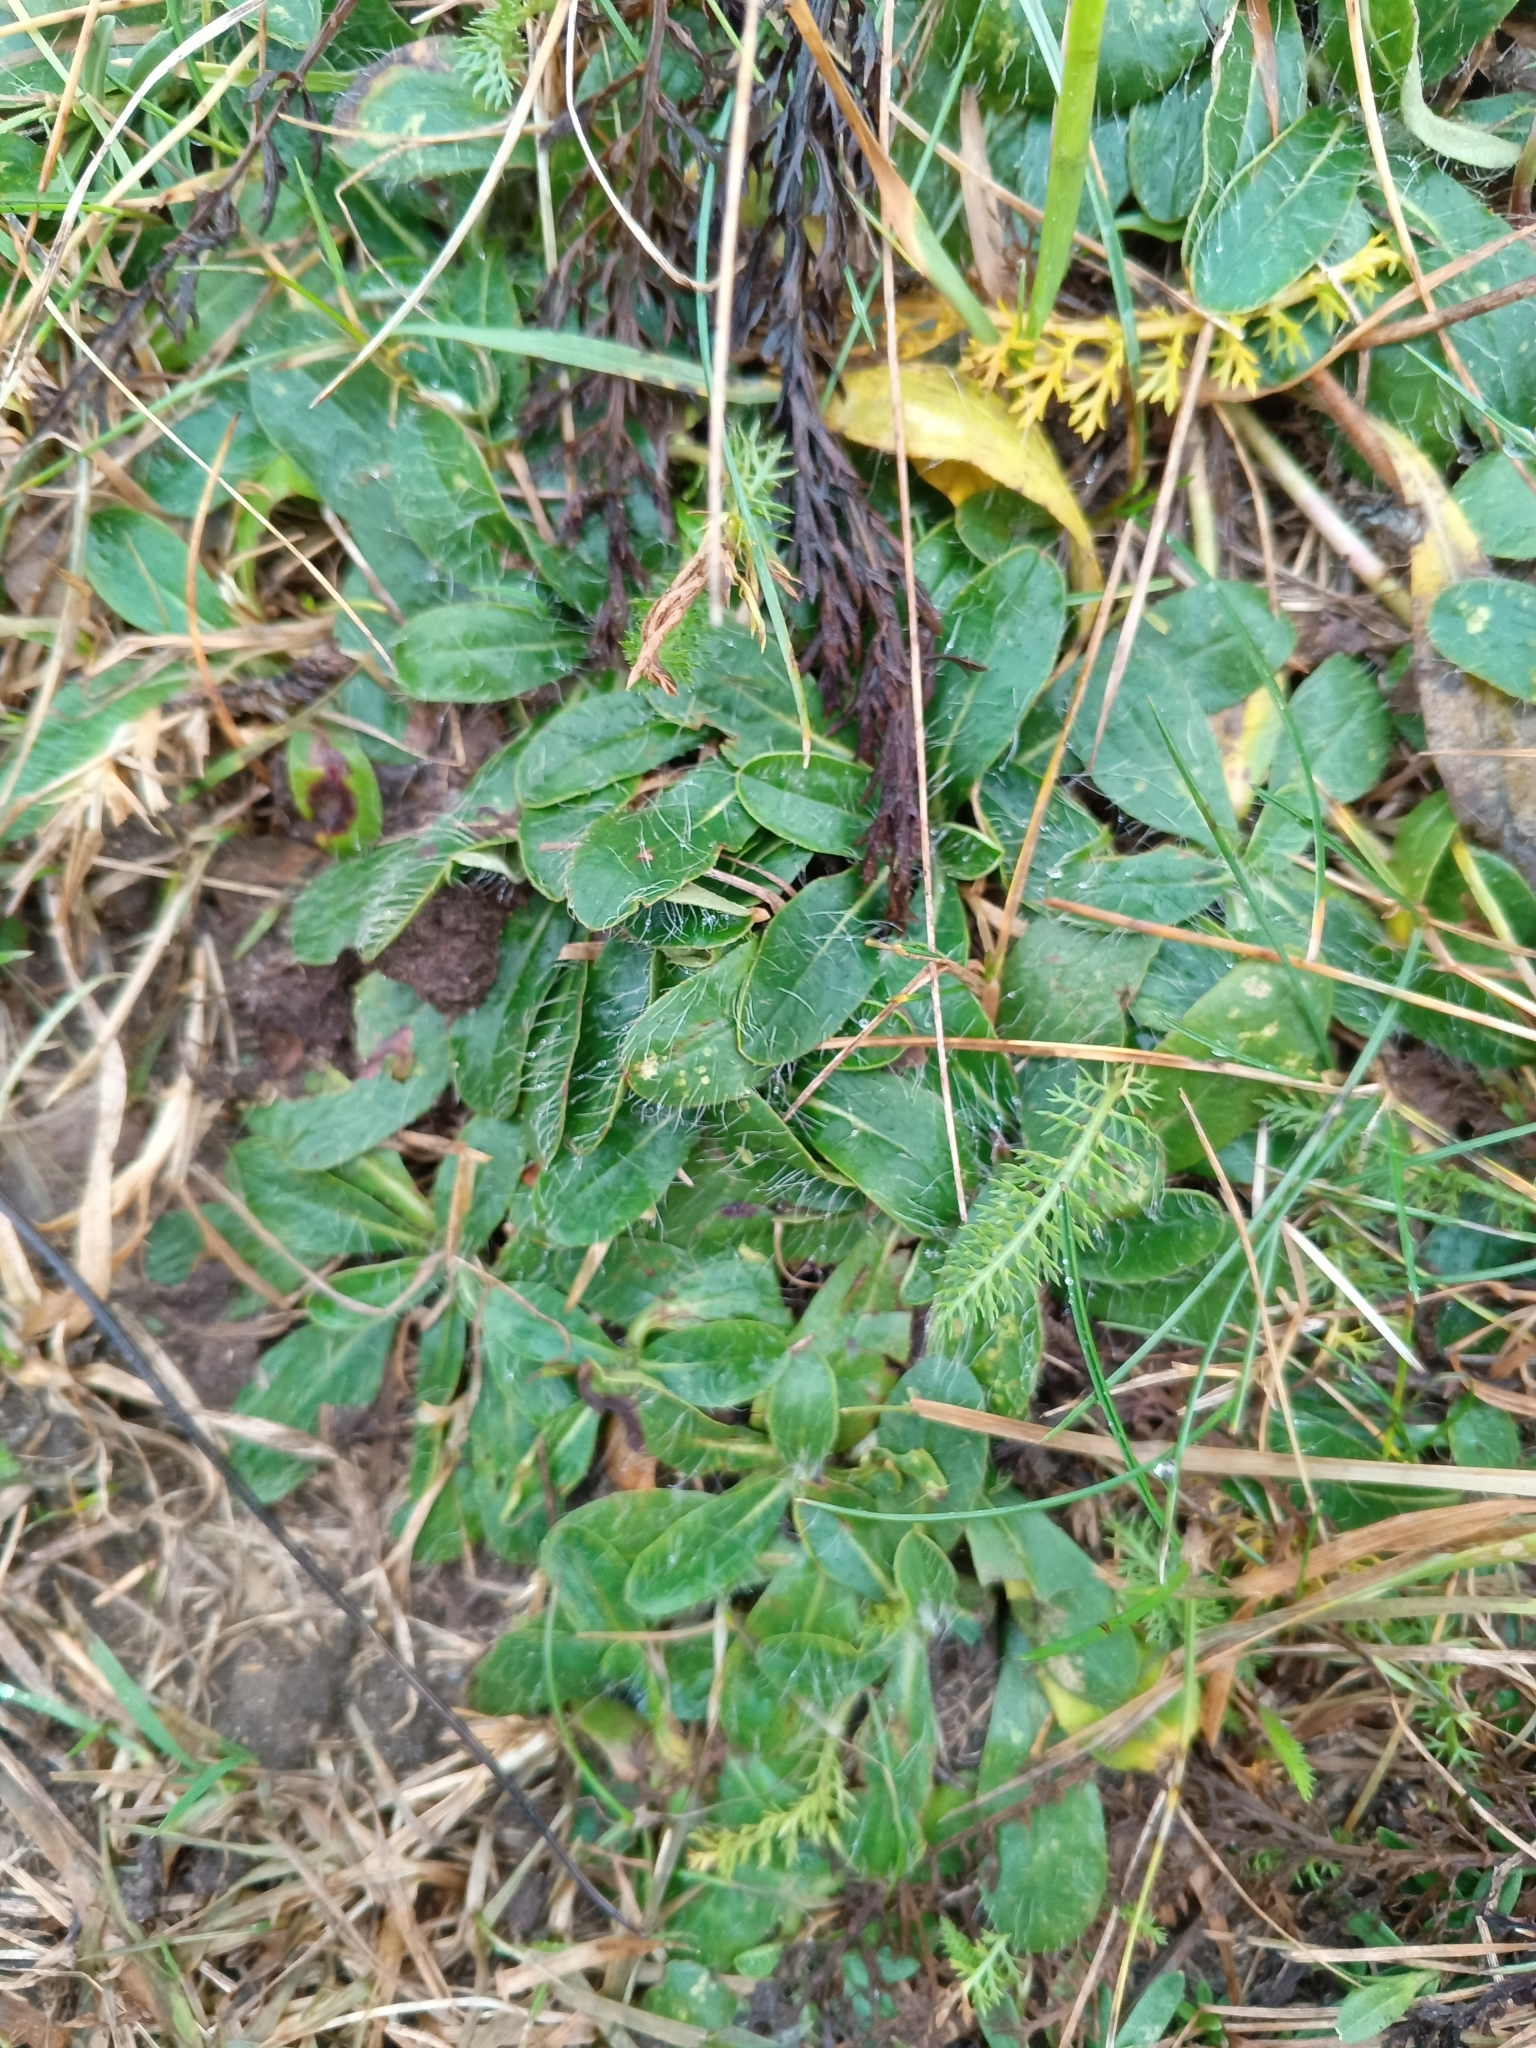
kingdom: Plantae
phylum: Tracheophyta
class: Magnoliopsida
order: Asterales
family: Asteraceae
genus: Pilosella
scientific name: Pilosella officinarum
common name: Mouse-ear hawkweed
